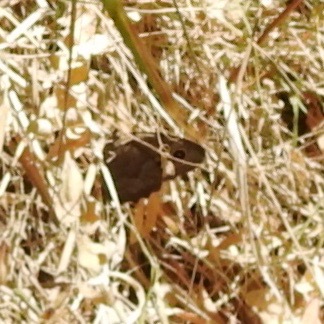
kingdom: Animalia
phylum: Arthropoda
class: Insecta
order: Lepidoptera
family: Nymphalidae
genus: Cercyonis
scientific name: Cercyonis pegala
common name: Common wood-nymph
